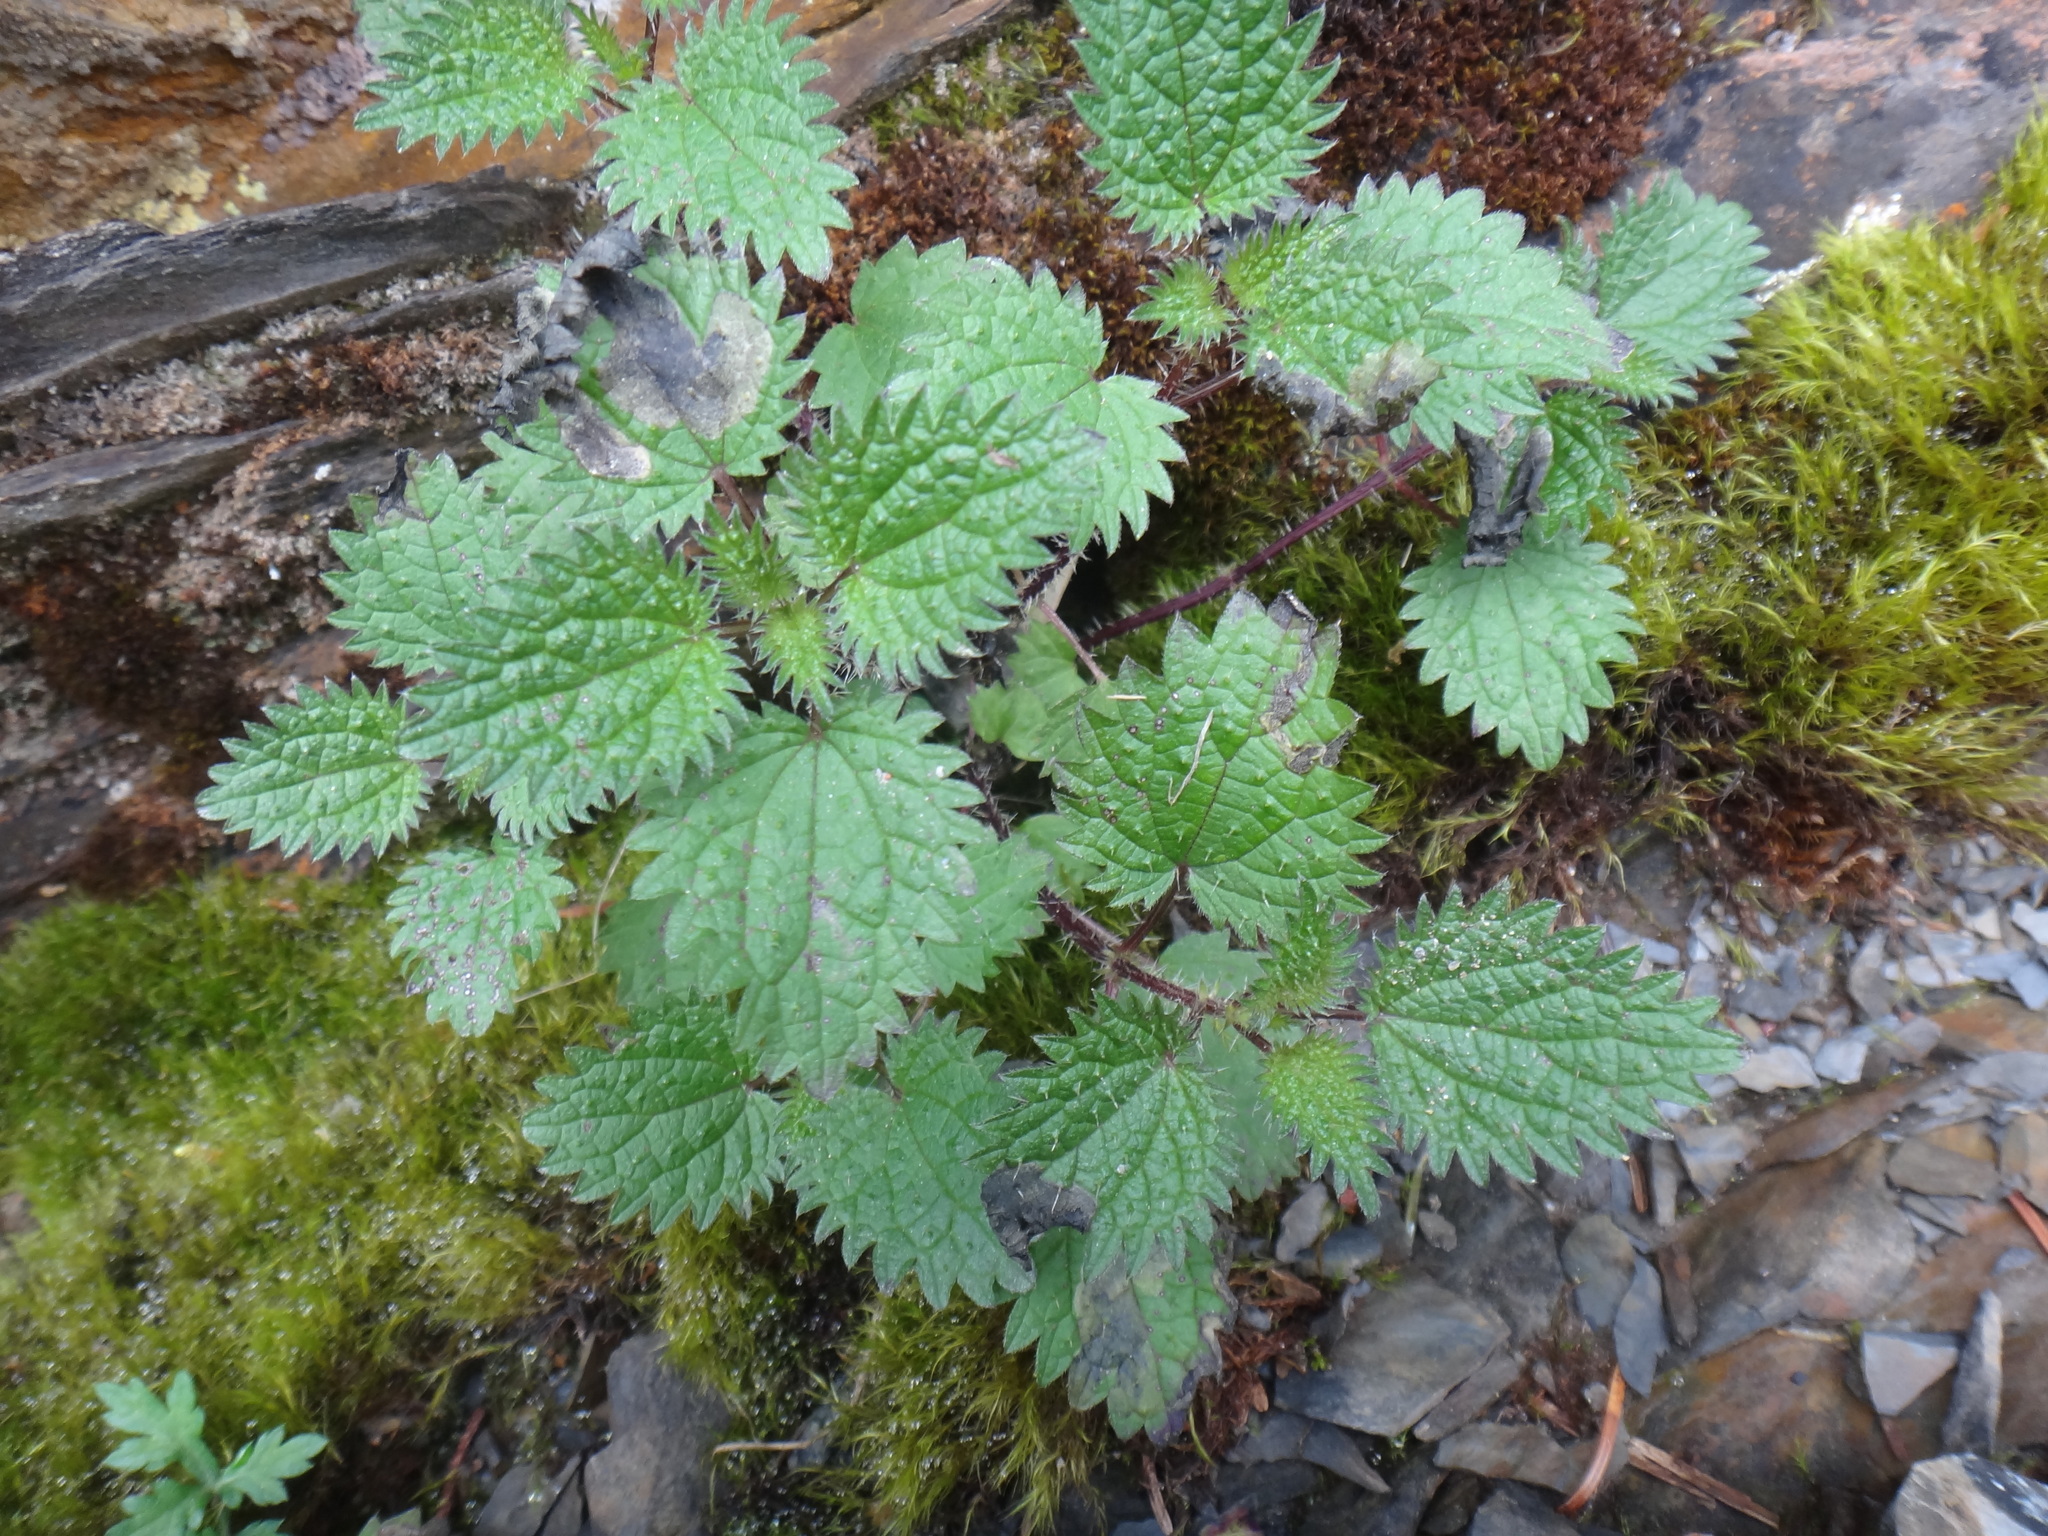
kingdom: Plantae
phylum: Tracheophyta
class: Magnoliopsida
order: Rosales
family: Urticaceae
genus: Urtica
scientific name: Urtica taiwaniana
